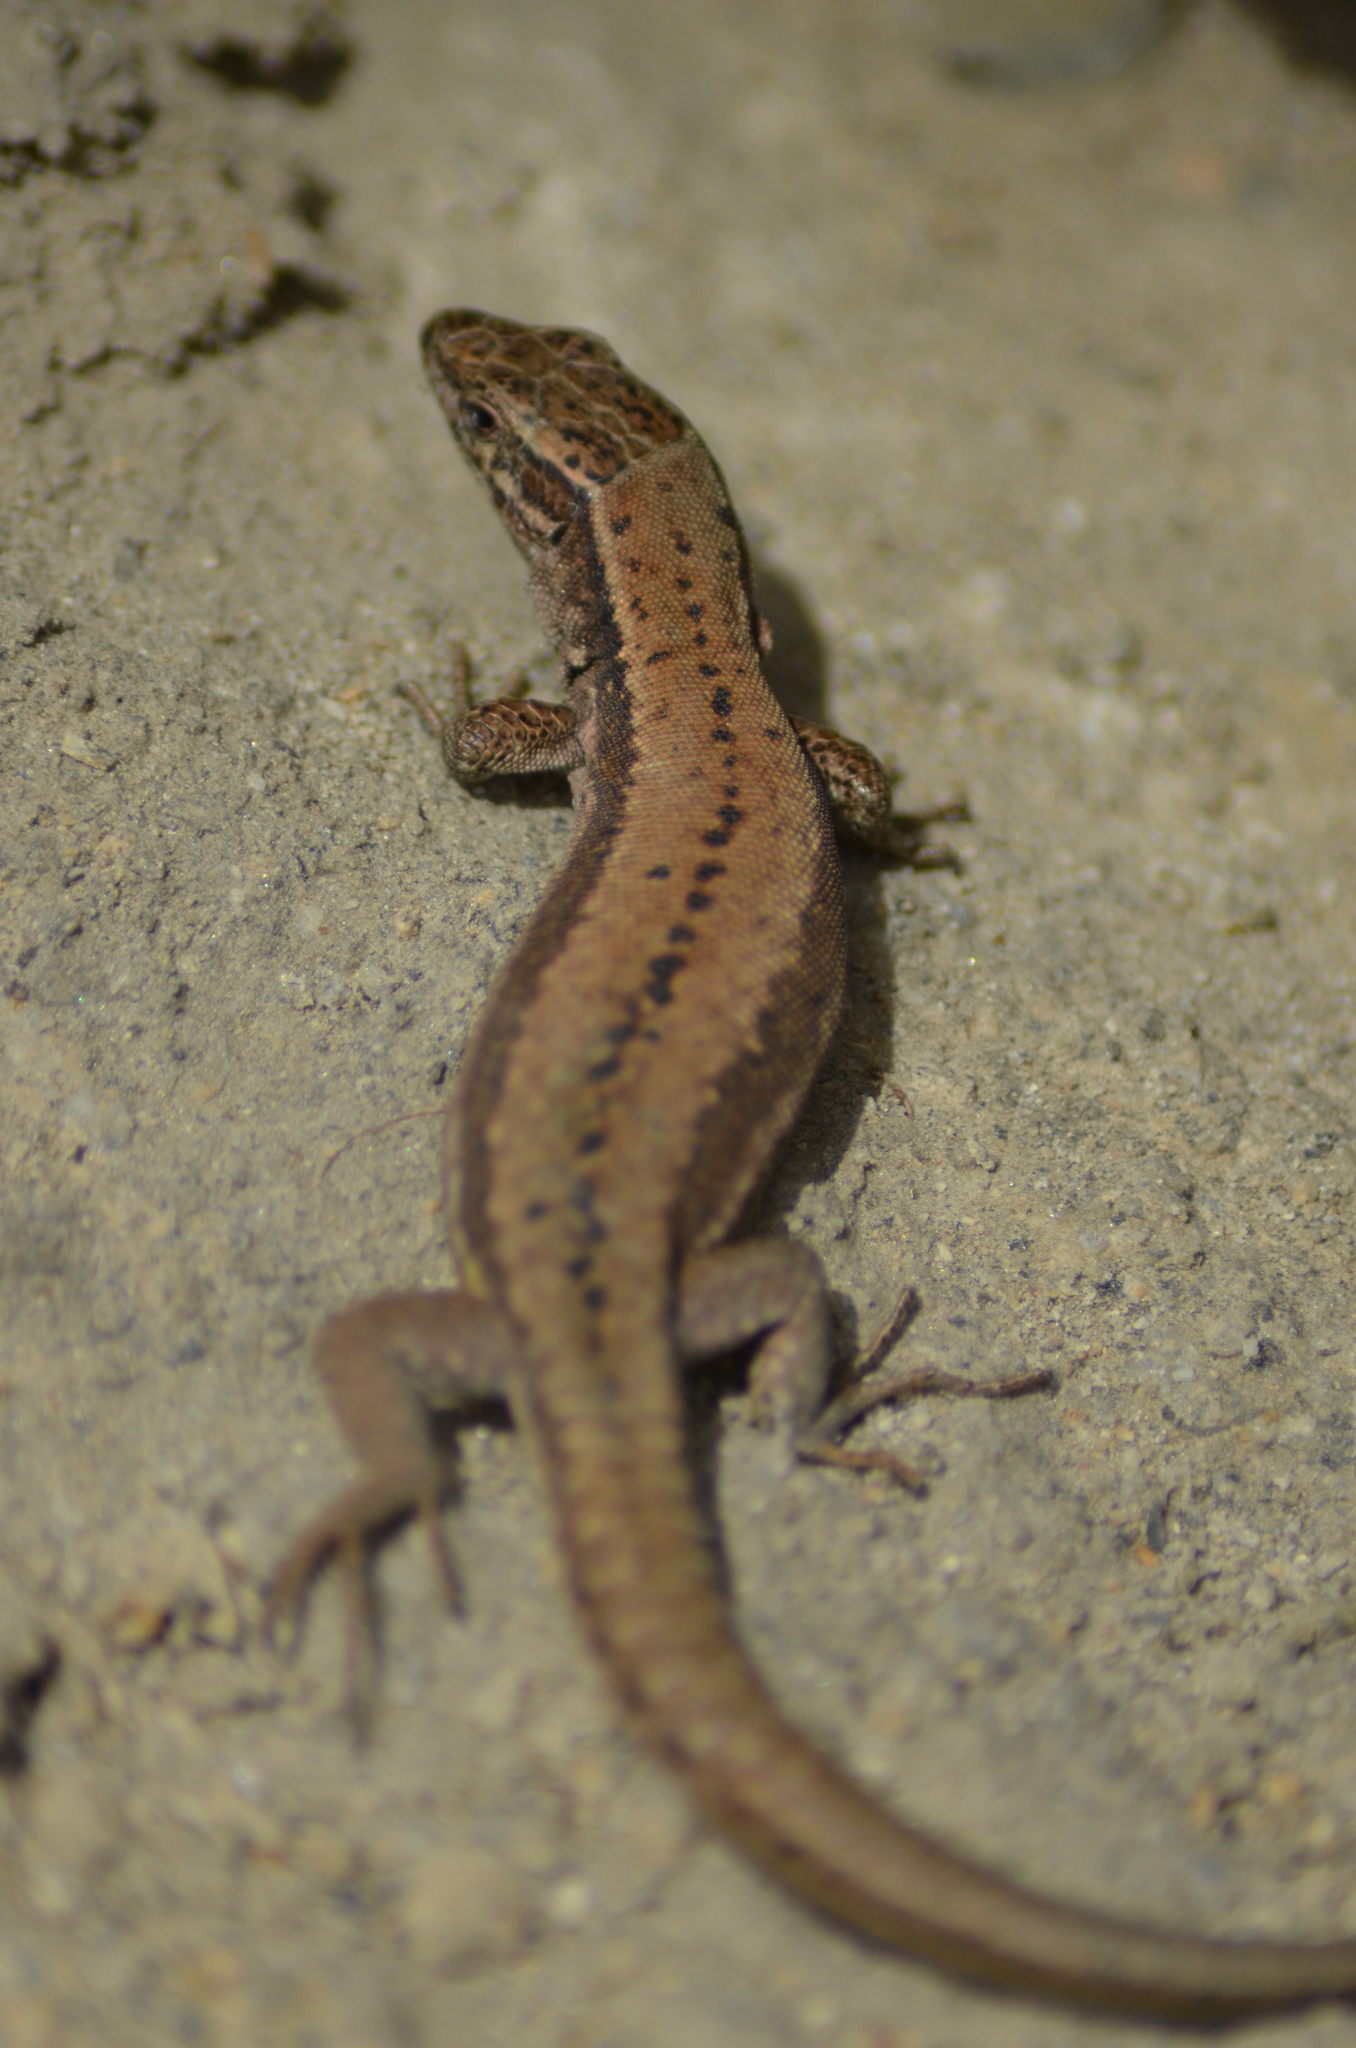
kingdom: Animalia
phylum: Chordata
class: Squamata
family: Lacertidae
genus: Podarcis
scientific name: Podarcis muralis
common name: Common wall lizard
